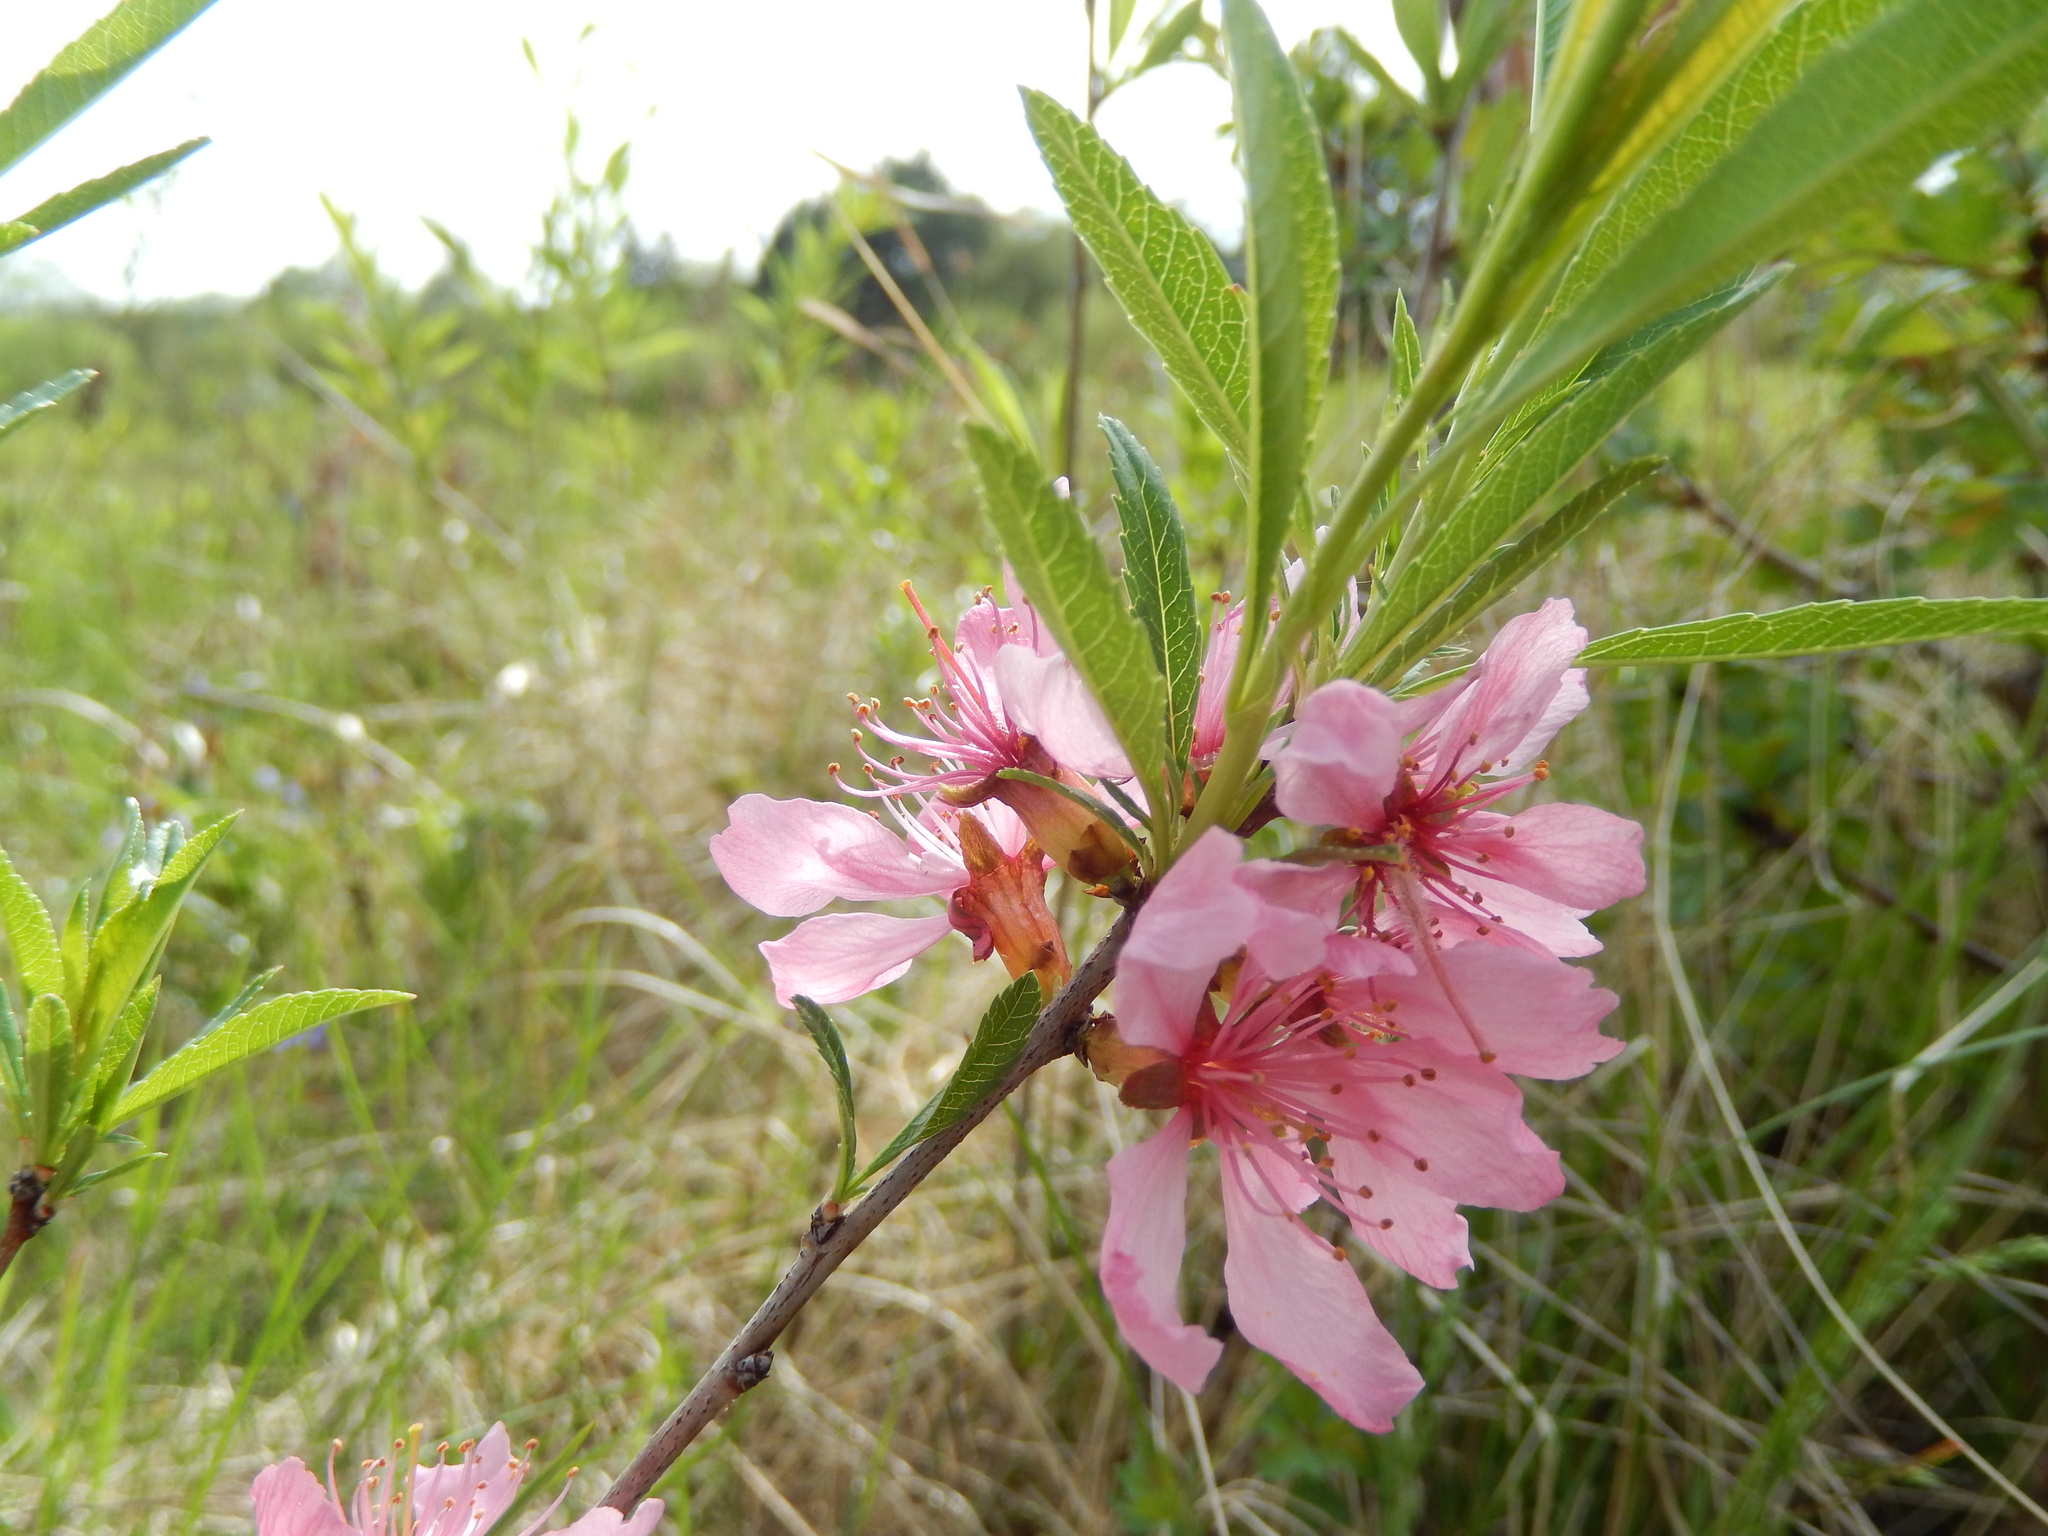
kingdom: Plantae
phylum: Tracheophyta
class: Magnoliopsida
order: Rosales
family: Rosaceae
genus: Prunus
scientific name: Prunus tenella
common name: Dwarf russian almond
